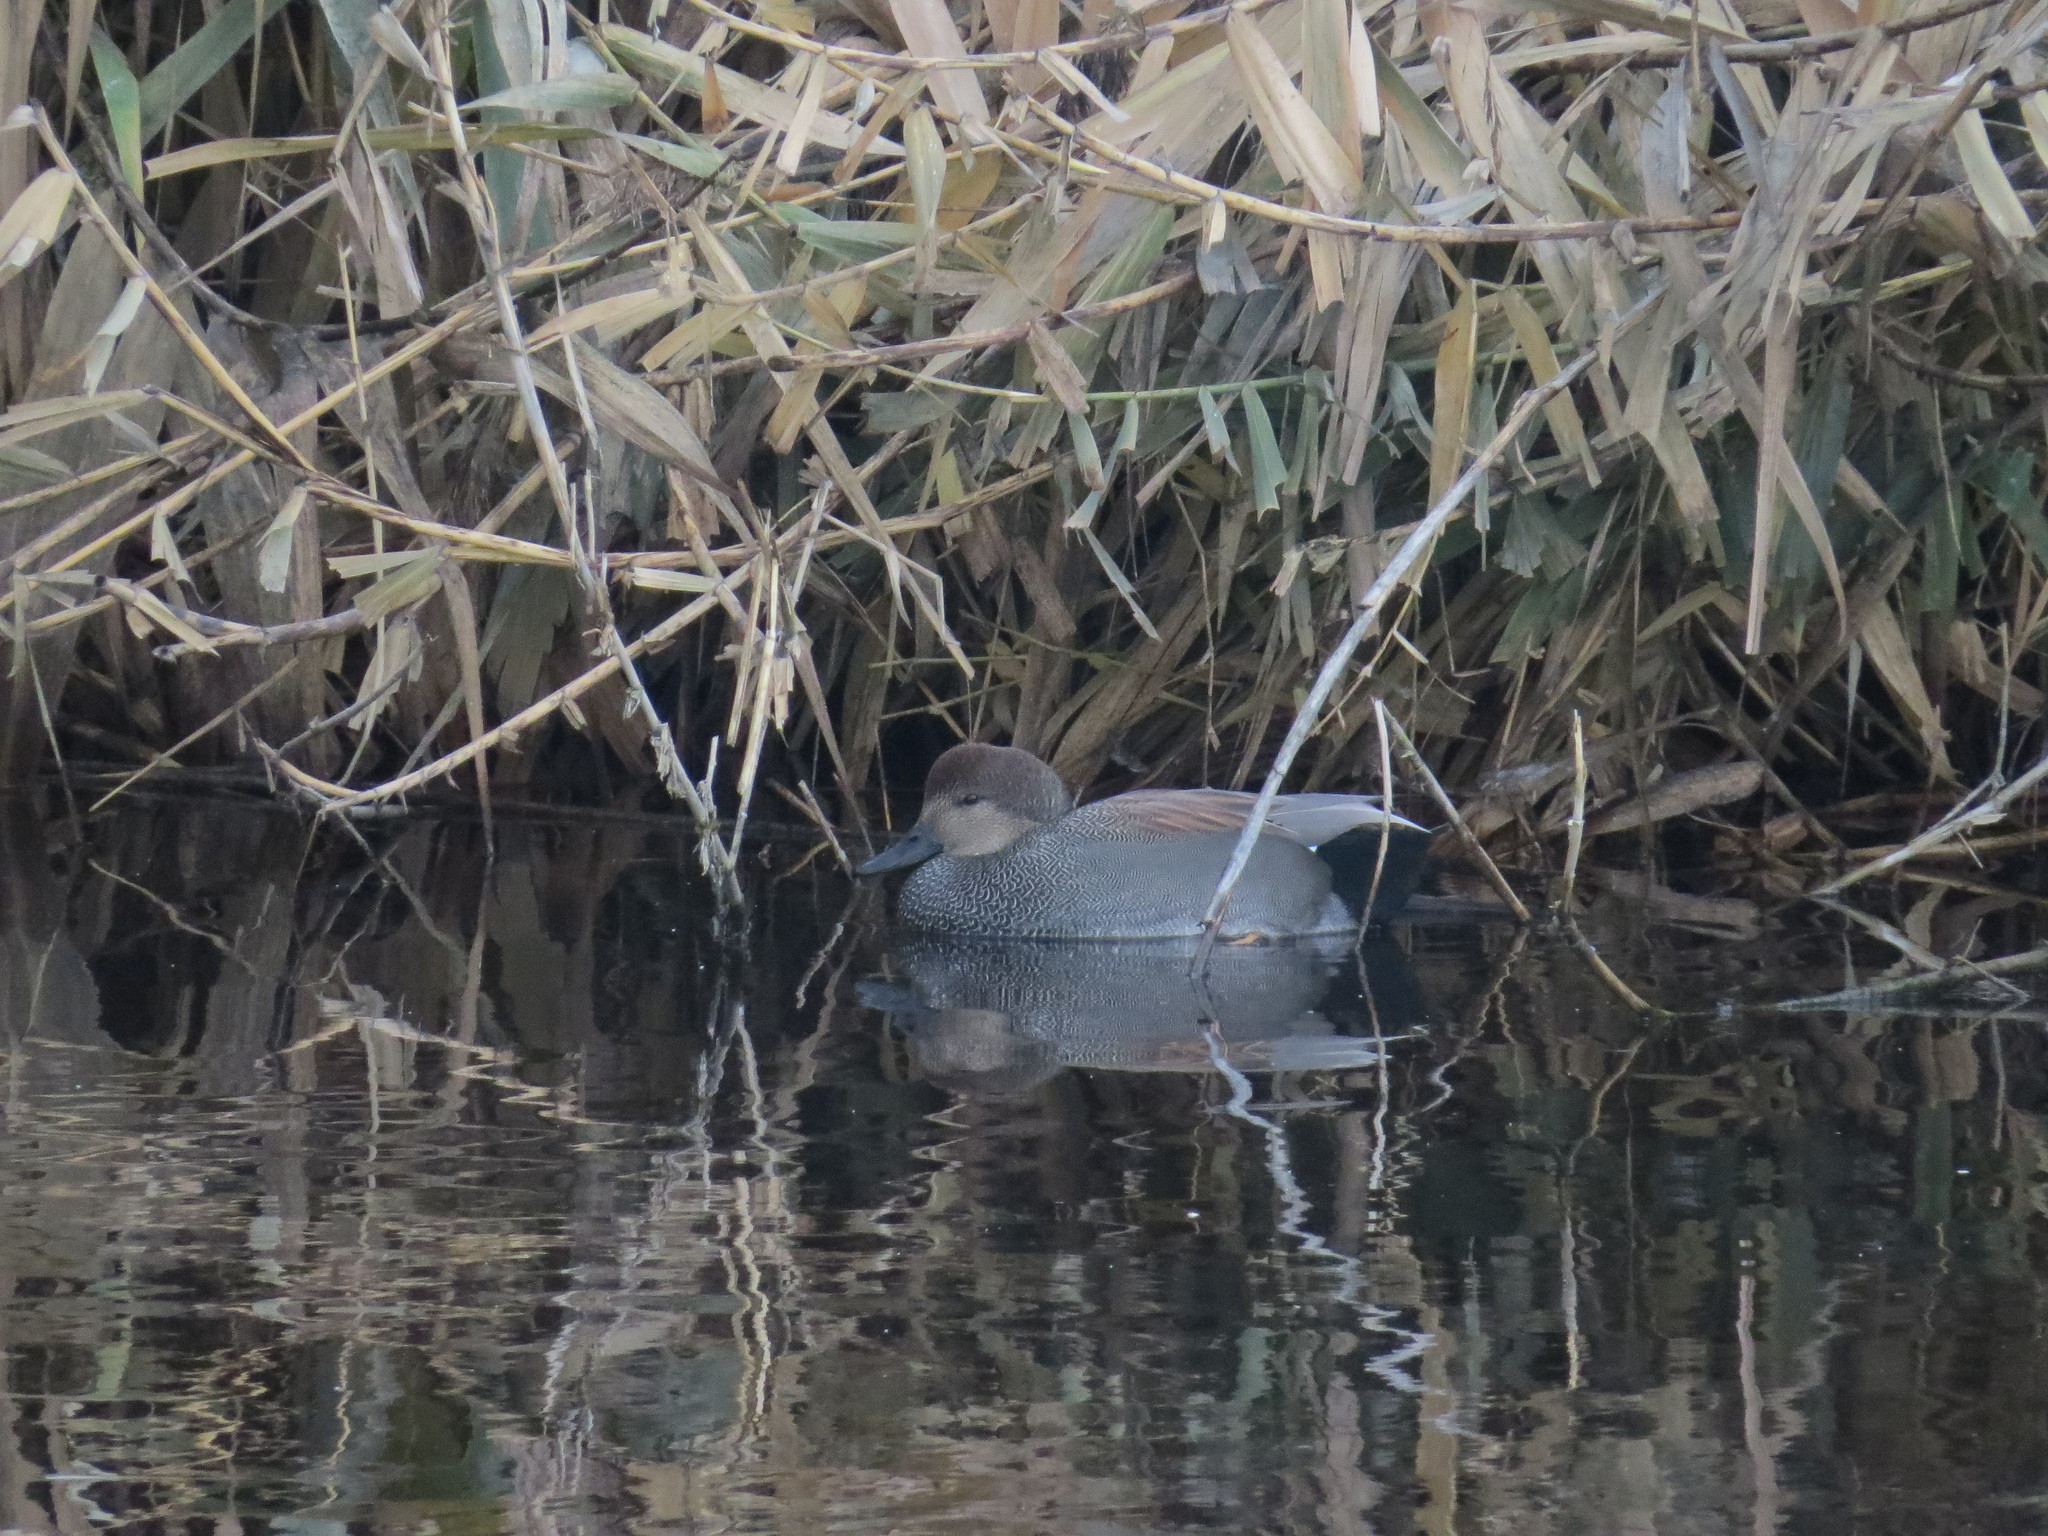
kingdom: Animalia
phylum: Chordata
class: Aves
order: Anseriformes
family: Anatidae
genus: Mareca
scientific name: Mareca strepera
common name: Gadwall
